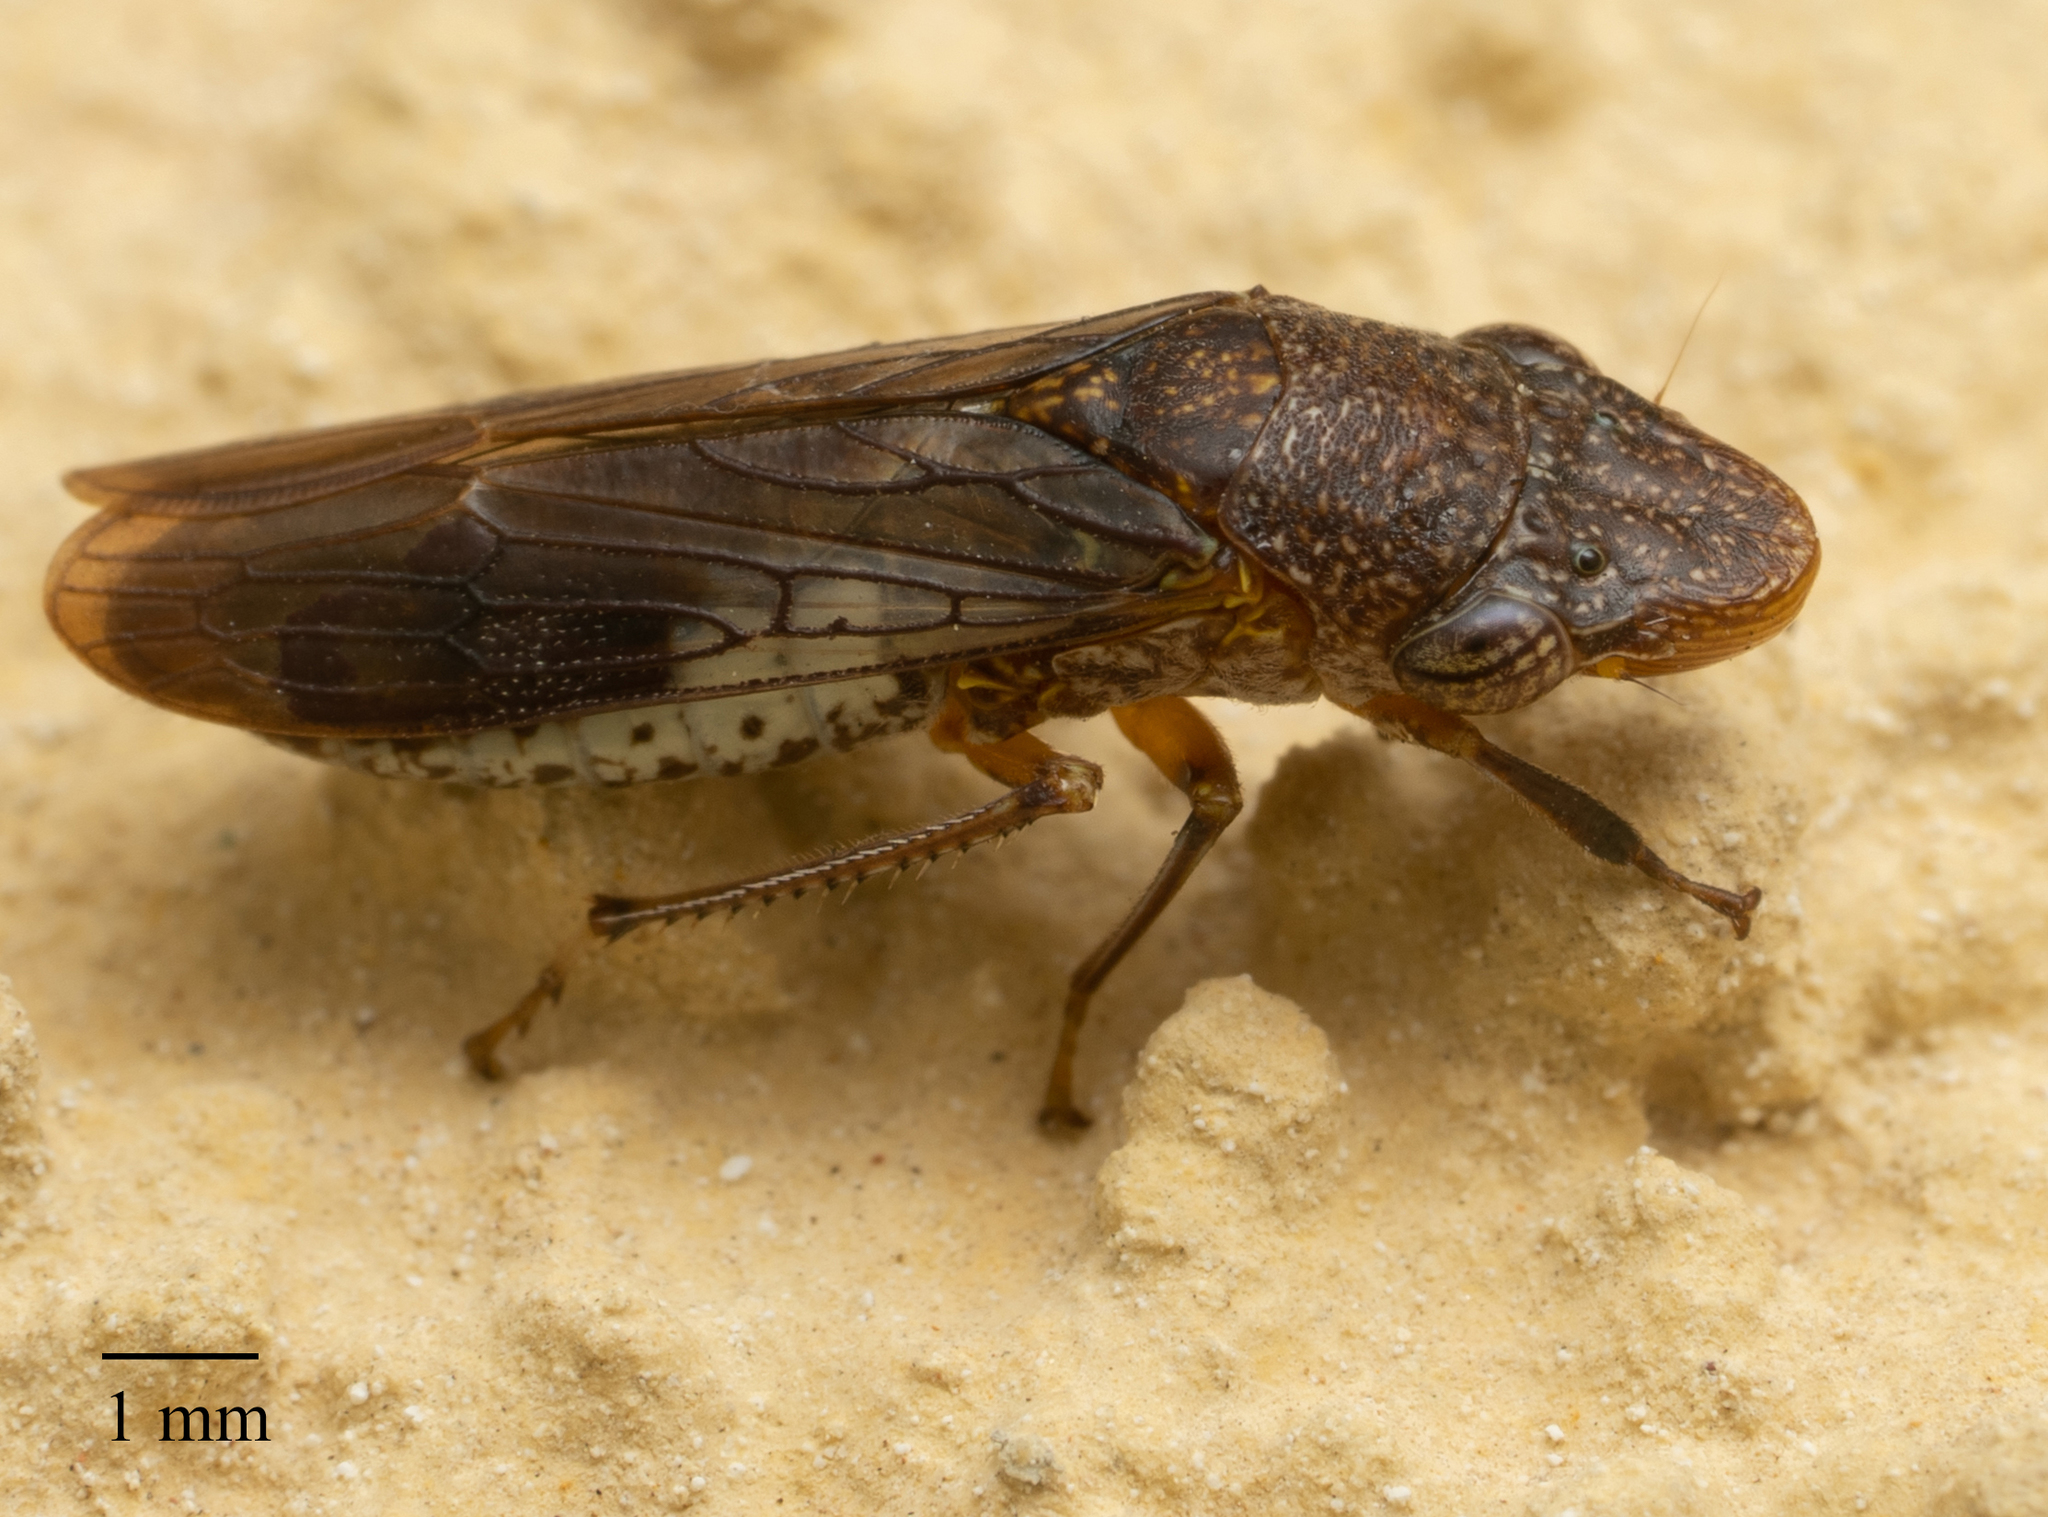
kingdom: Animalia
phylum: Arthropoda
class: Insecta
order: Hemiptera
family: Cicadellidae
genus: Homalodisca
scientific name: Homalodisca vitripennis
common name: Glassy-winged sharpshooter
